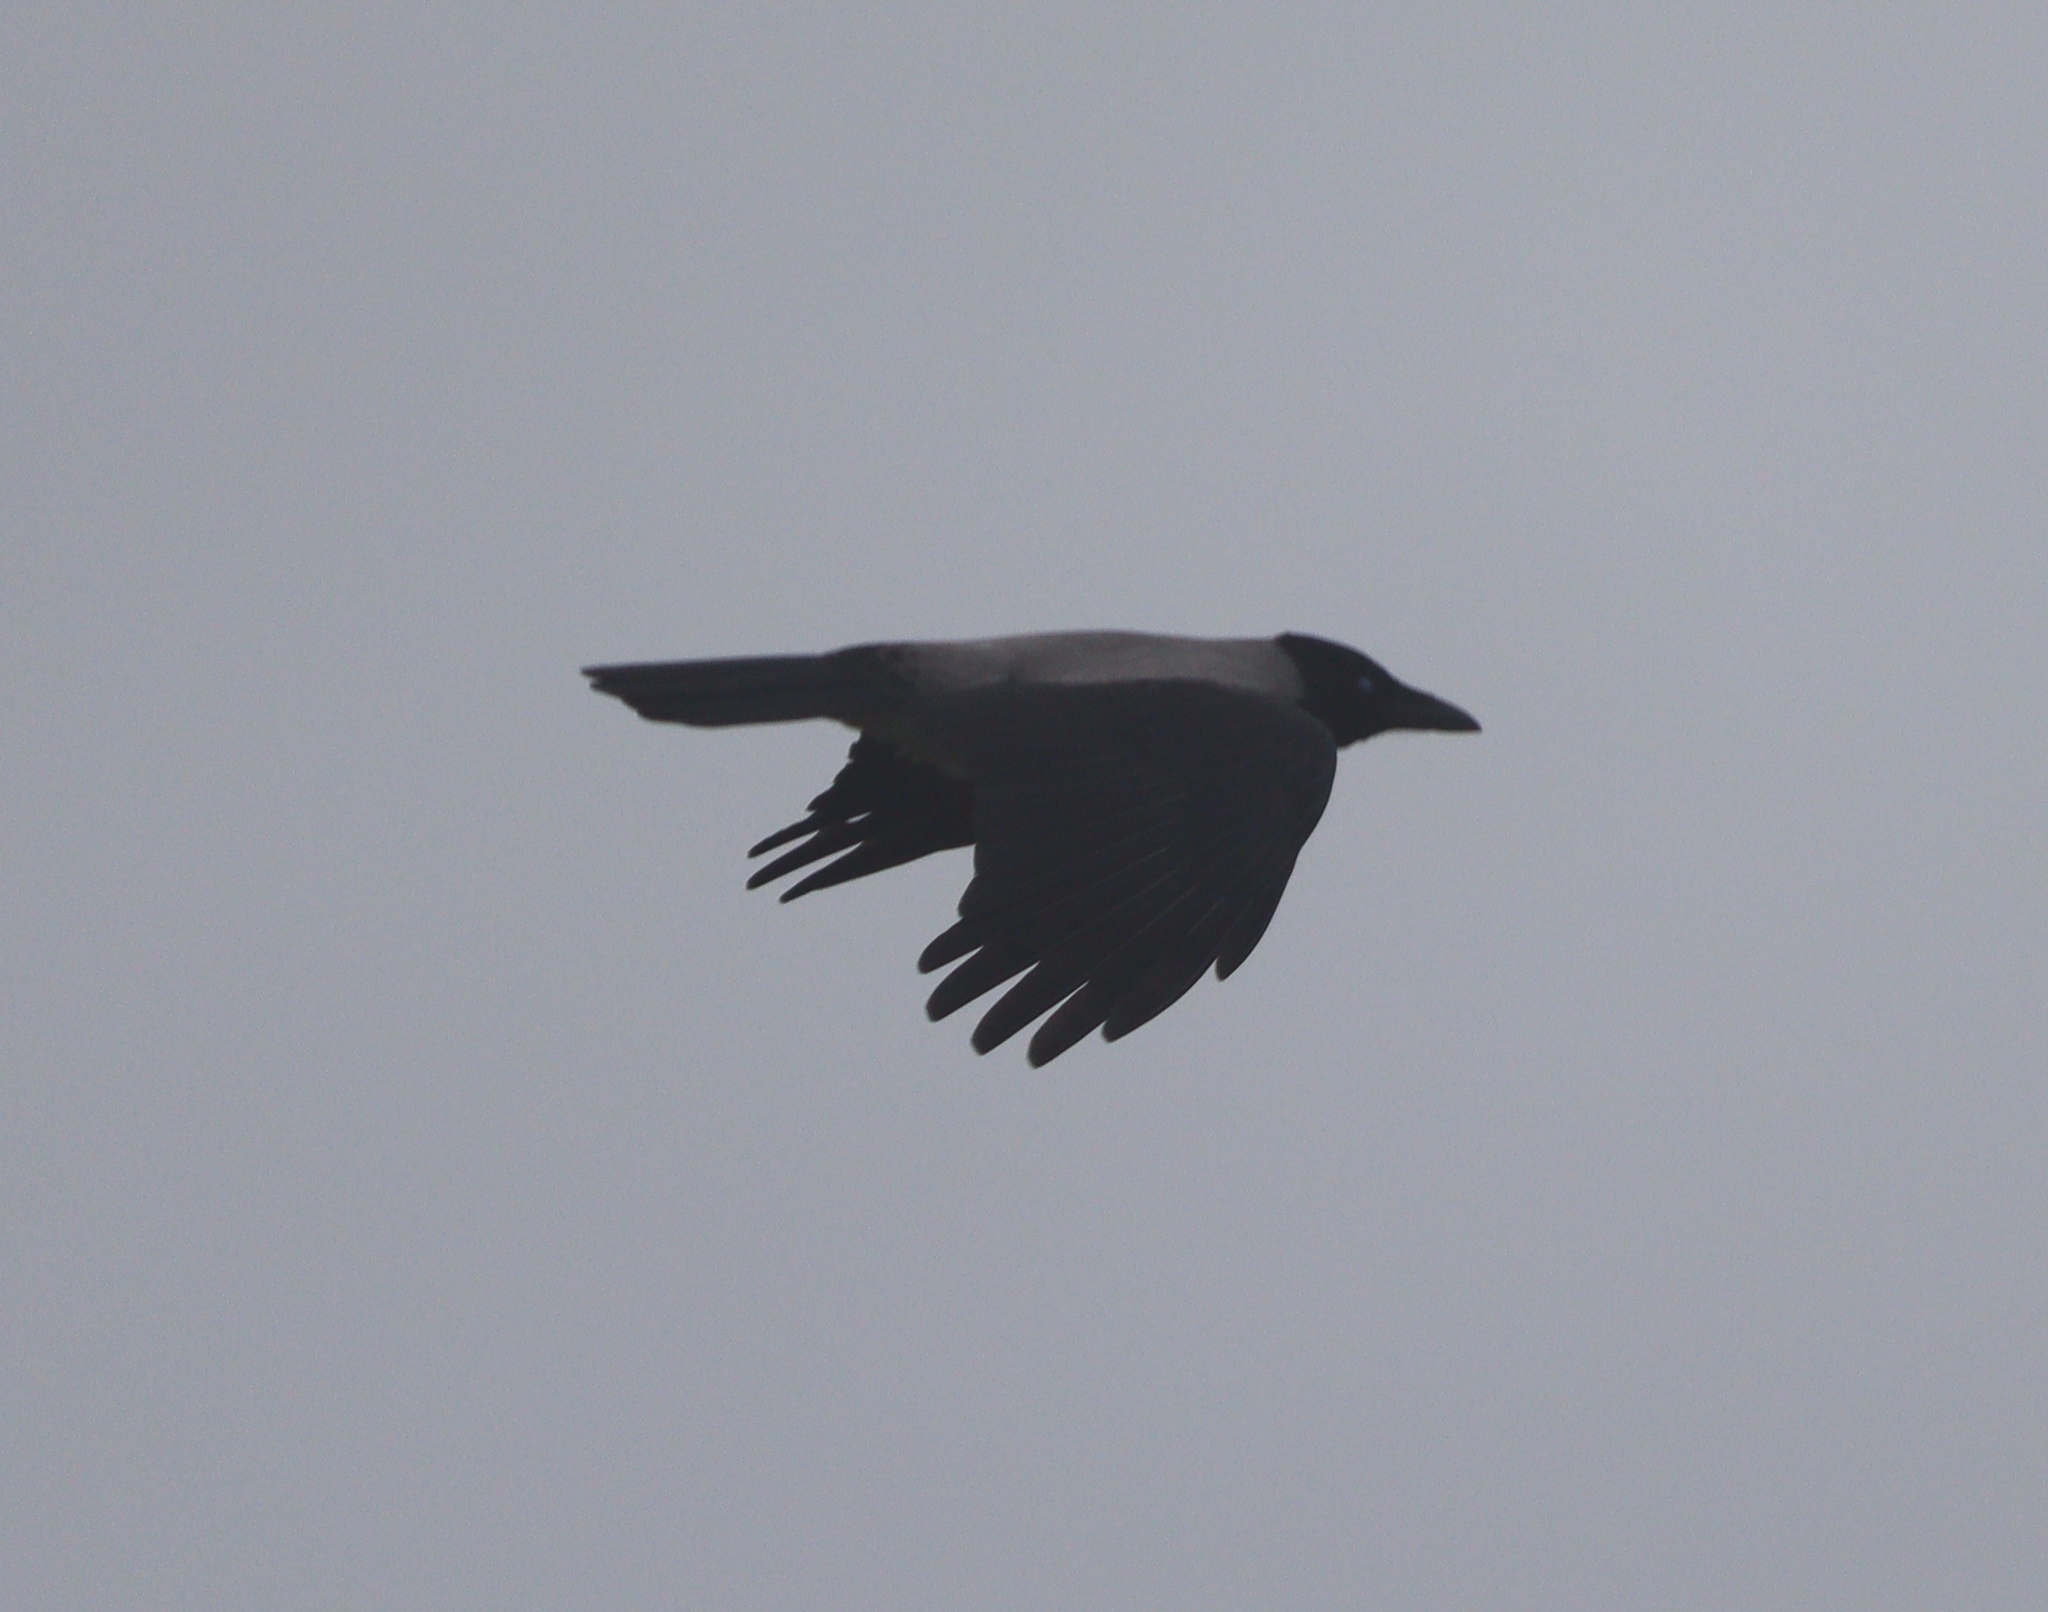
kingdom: Animalia
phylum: Chordata
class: Aves
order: Passeriformes
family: Corvidae
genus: Corvus
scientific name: Corvus cornix
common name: Hooded crow
